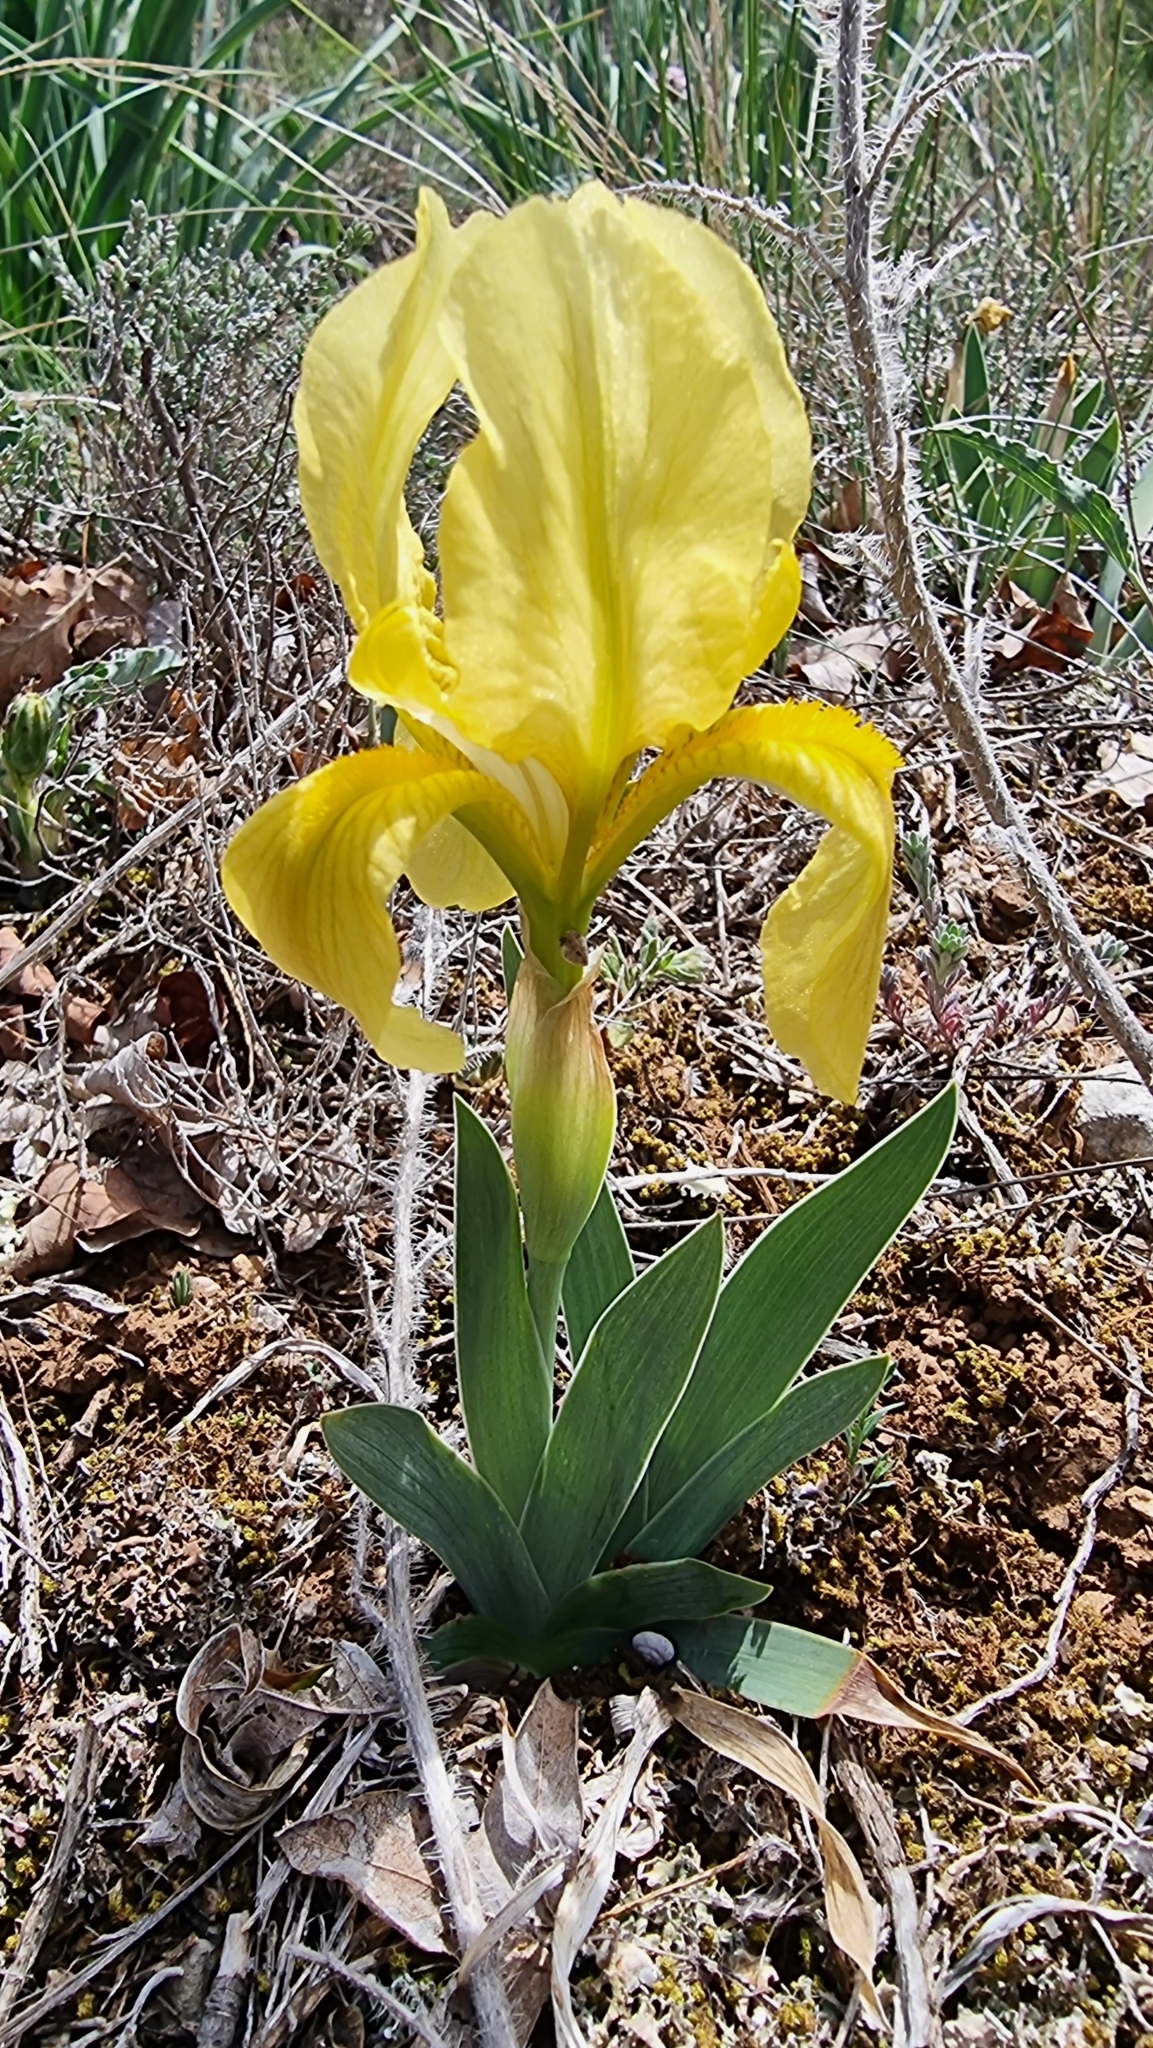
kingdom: Plantae
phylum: Tracheophyta
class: Liliopsida
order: Asparagales
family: Iridaceae
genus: Iris
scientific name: Iris lutescens
